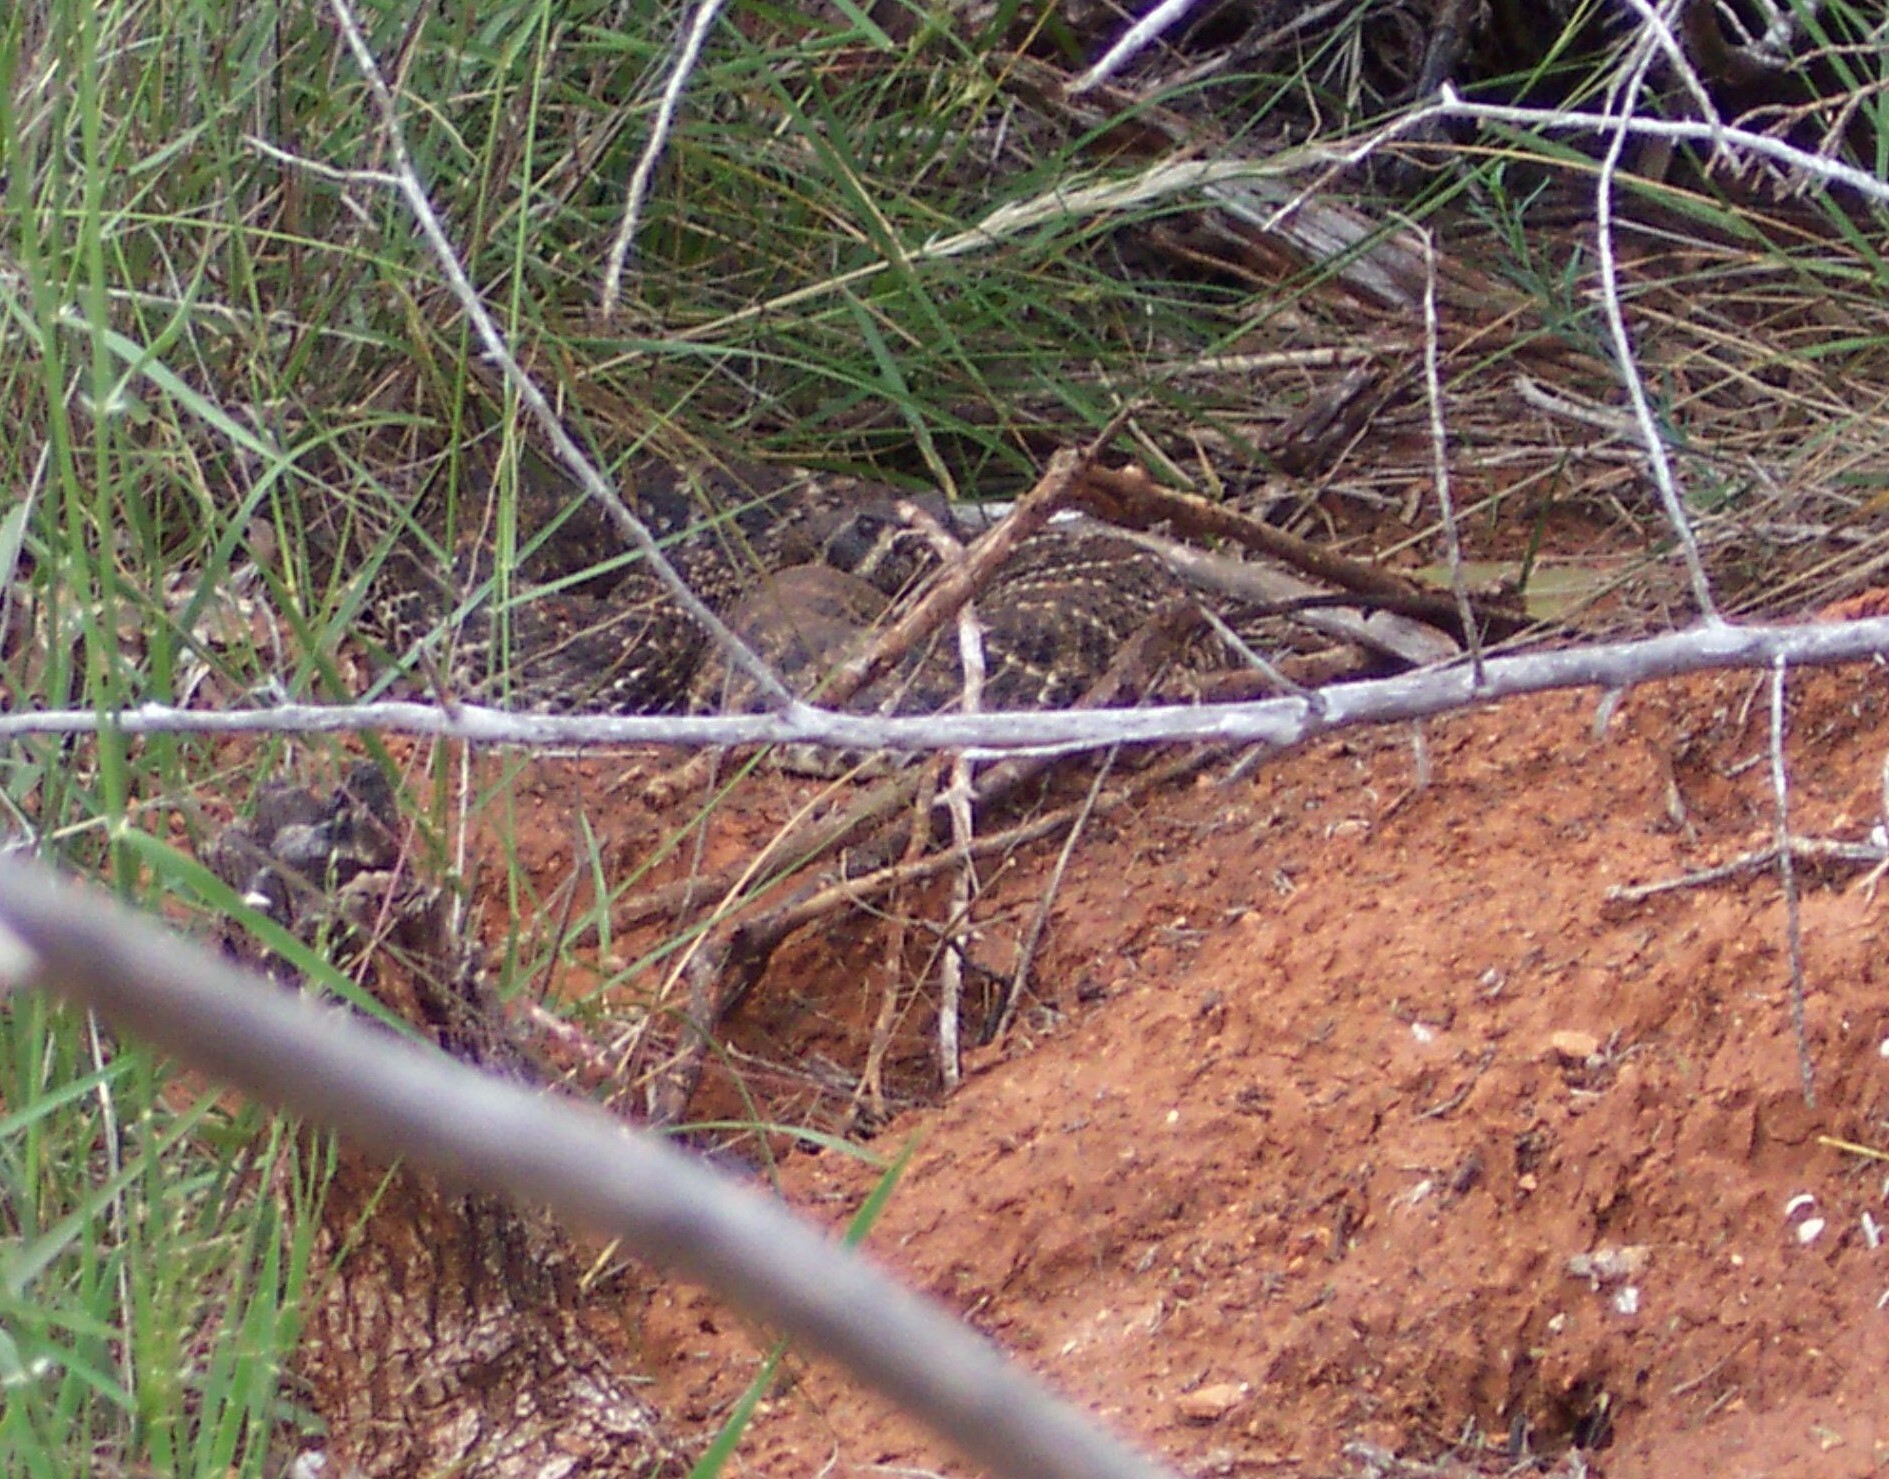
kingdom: Animalia
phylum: Chordata
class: Squamata
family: Viperidae
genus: Crotalus
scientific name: Crotalus atrox
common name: Western diamond-backed rattlesnake
